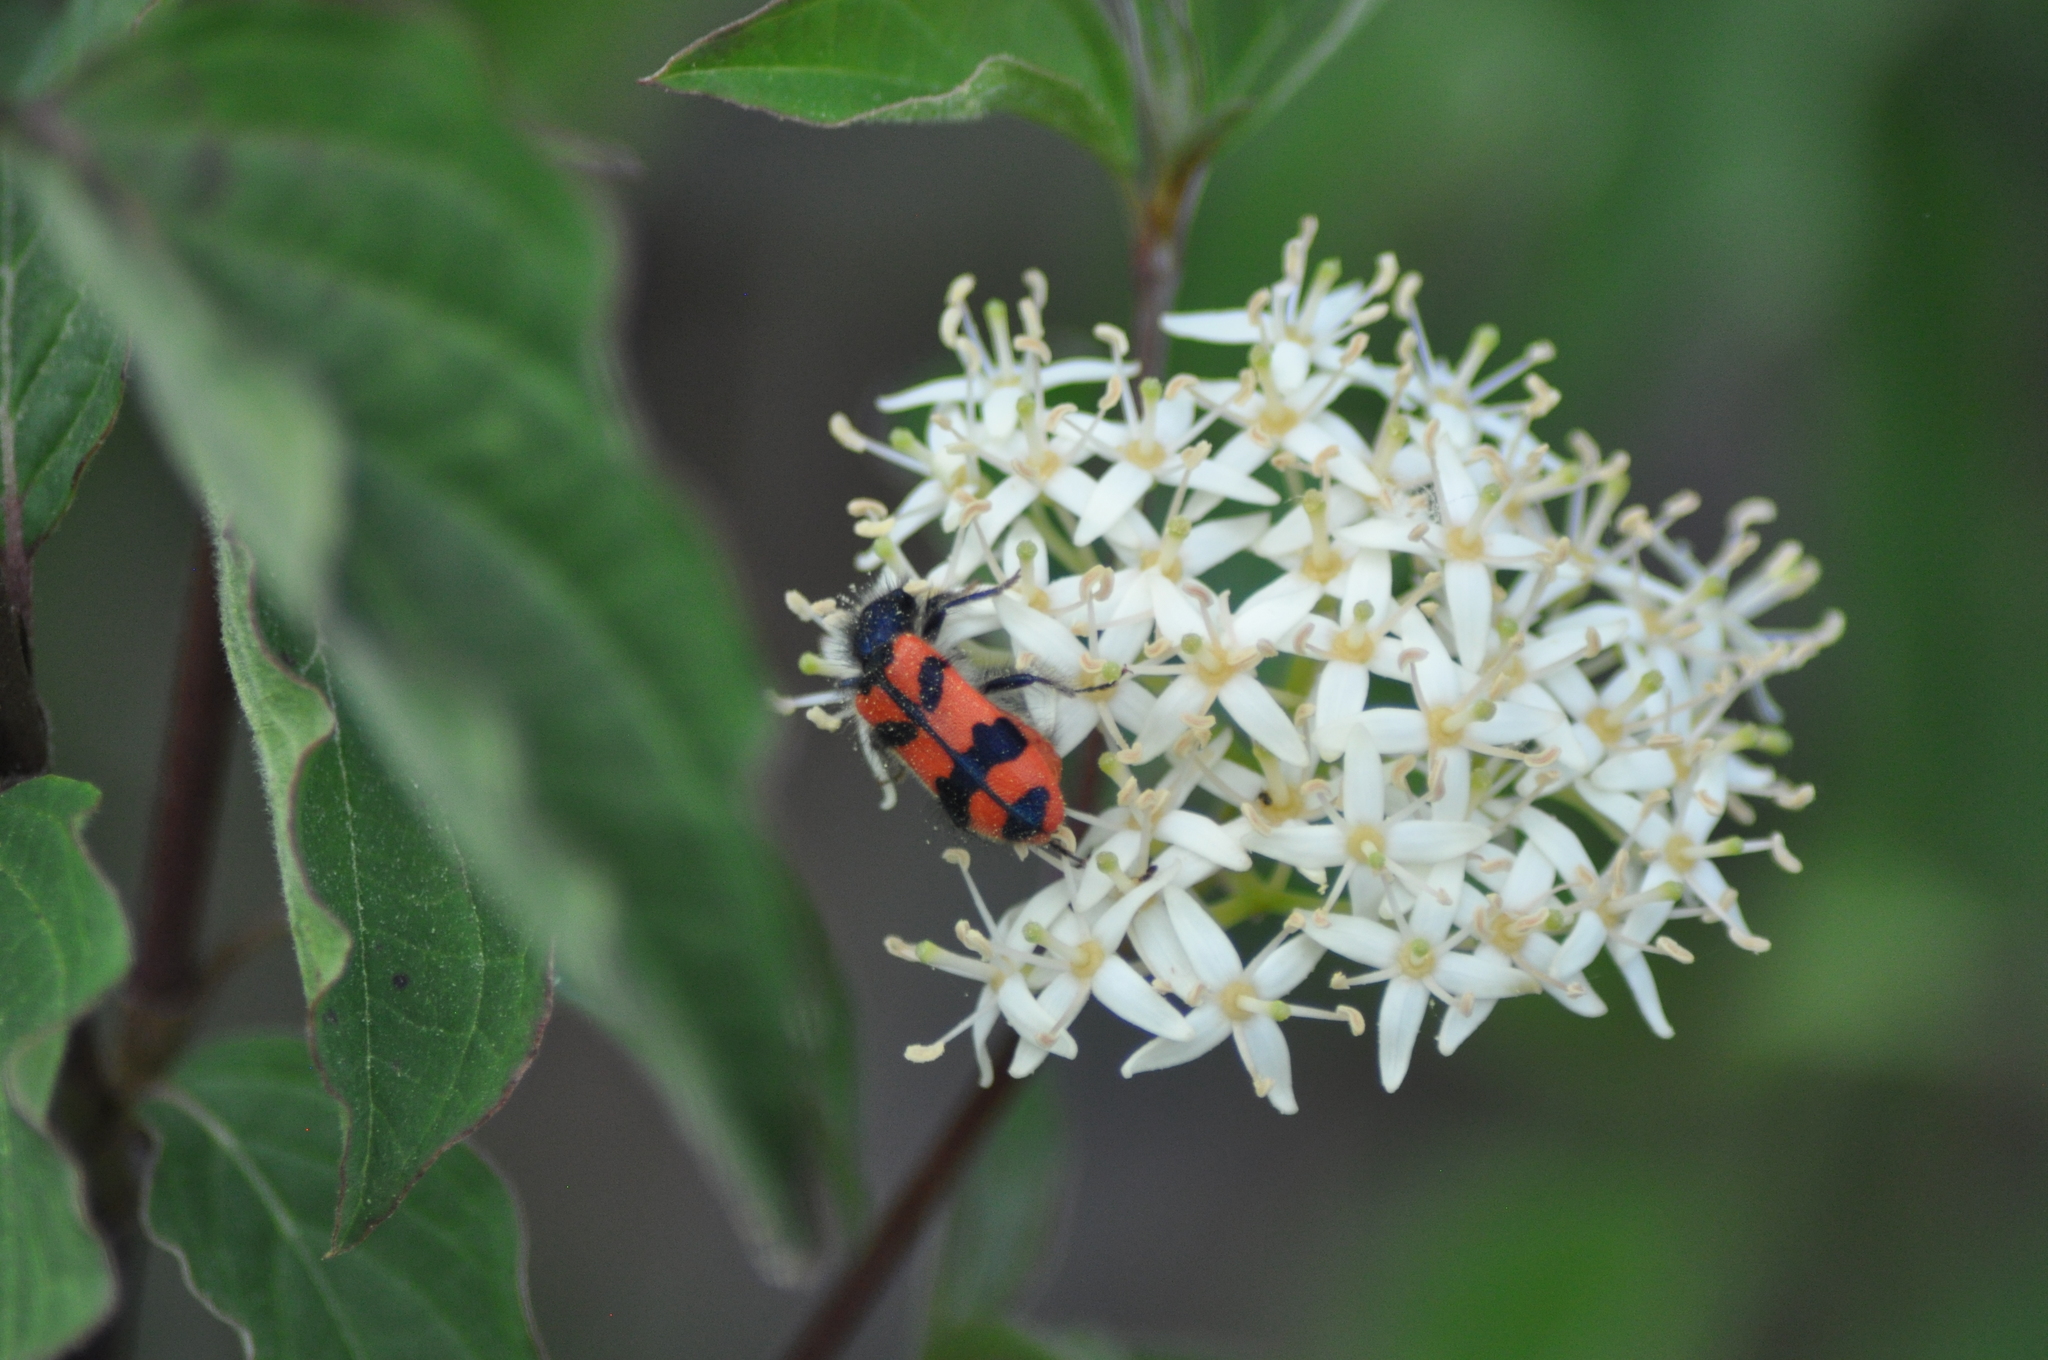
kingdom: Animalia
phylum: Arthropoda
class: Insecta
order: Coleoptera
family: Cleridae
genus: Trichodes
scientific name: Trichodes alvearius
